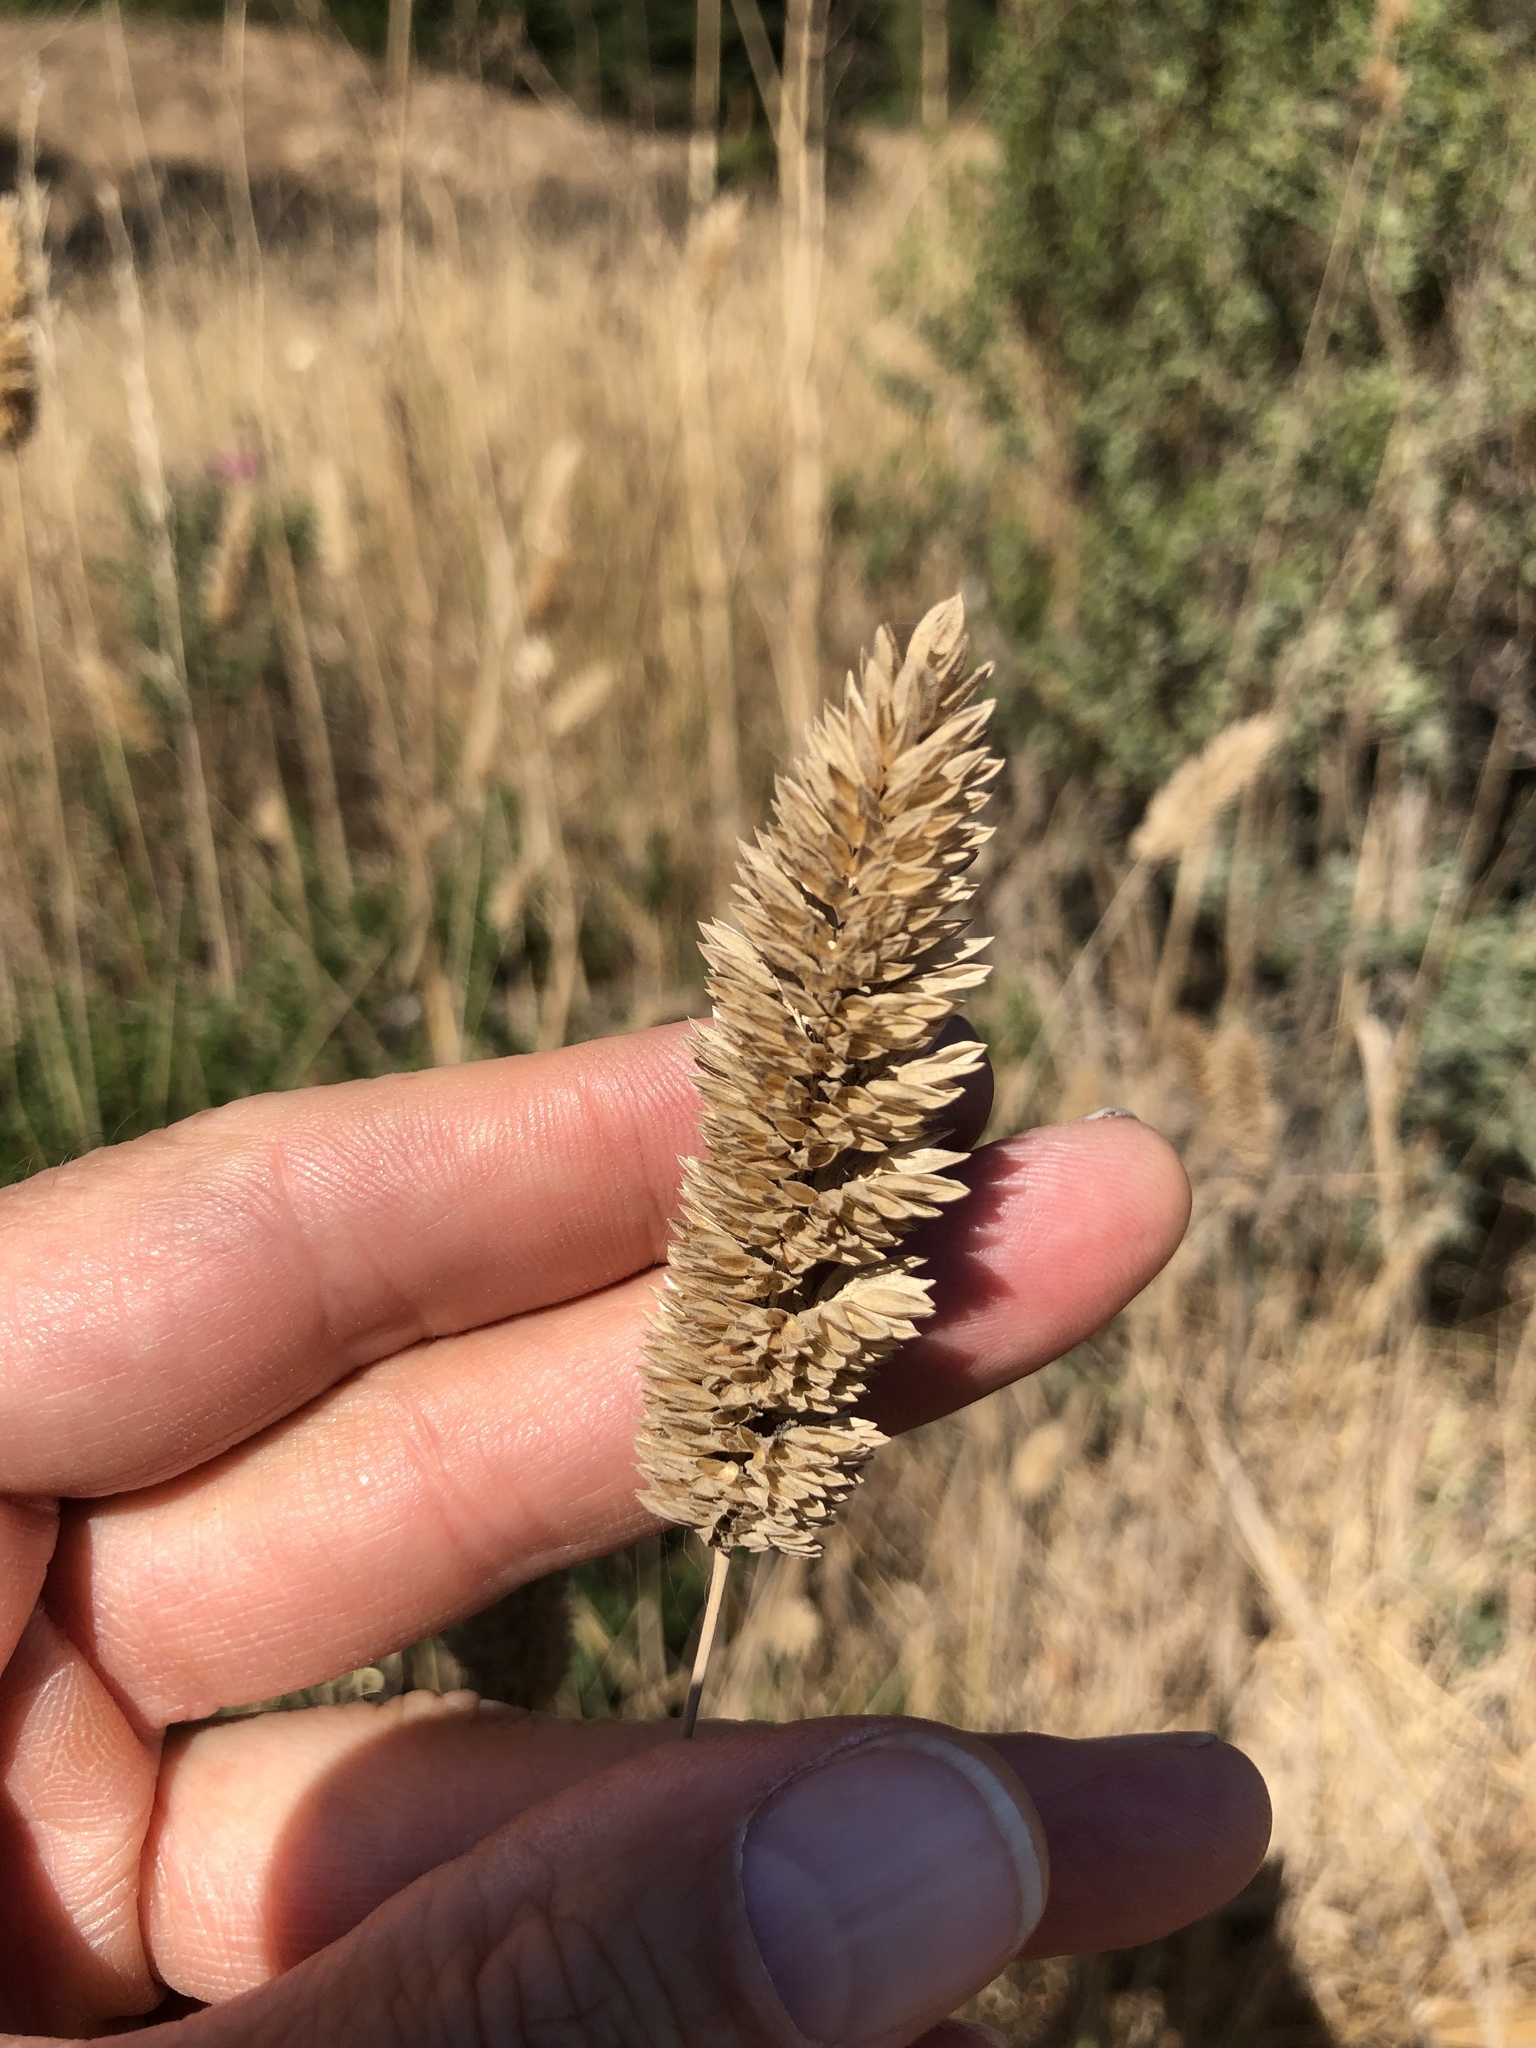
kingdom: Plantae
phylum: Tracheophyta
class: Liliopsida
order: Poales
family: Poaceae
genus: Phalaris
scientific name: Phalaris aquatica
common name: Bulbous canary-grass
